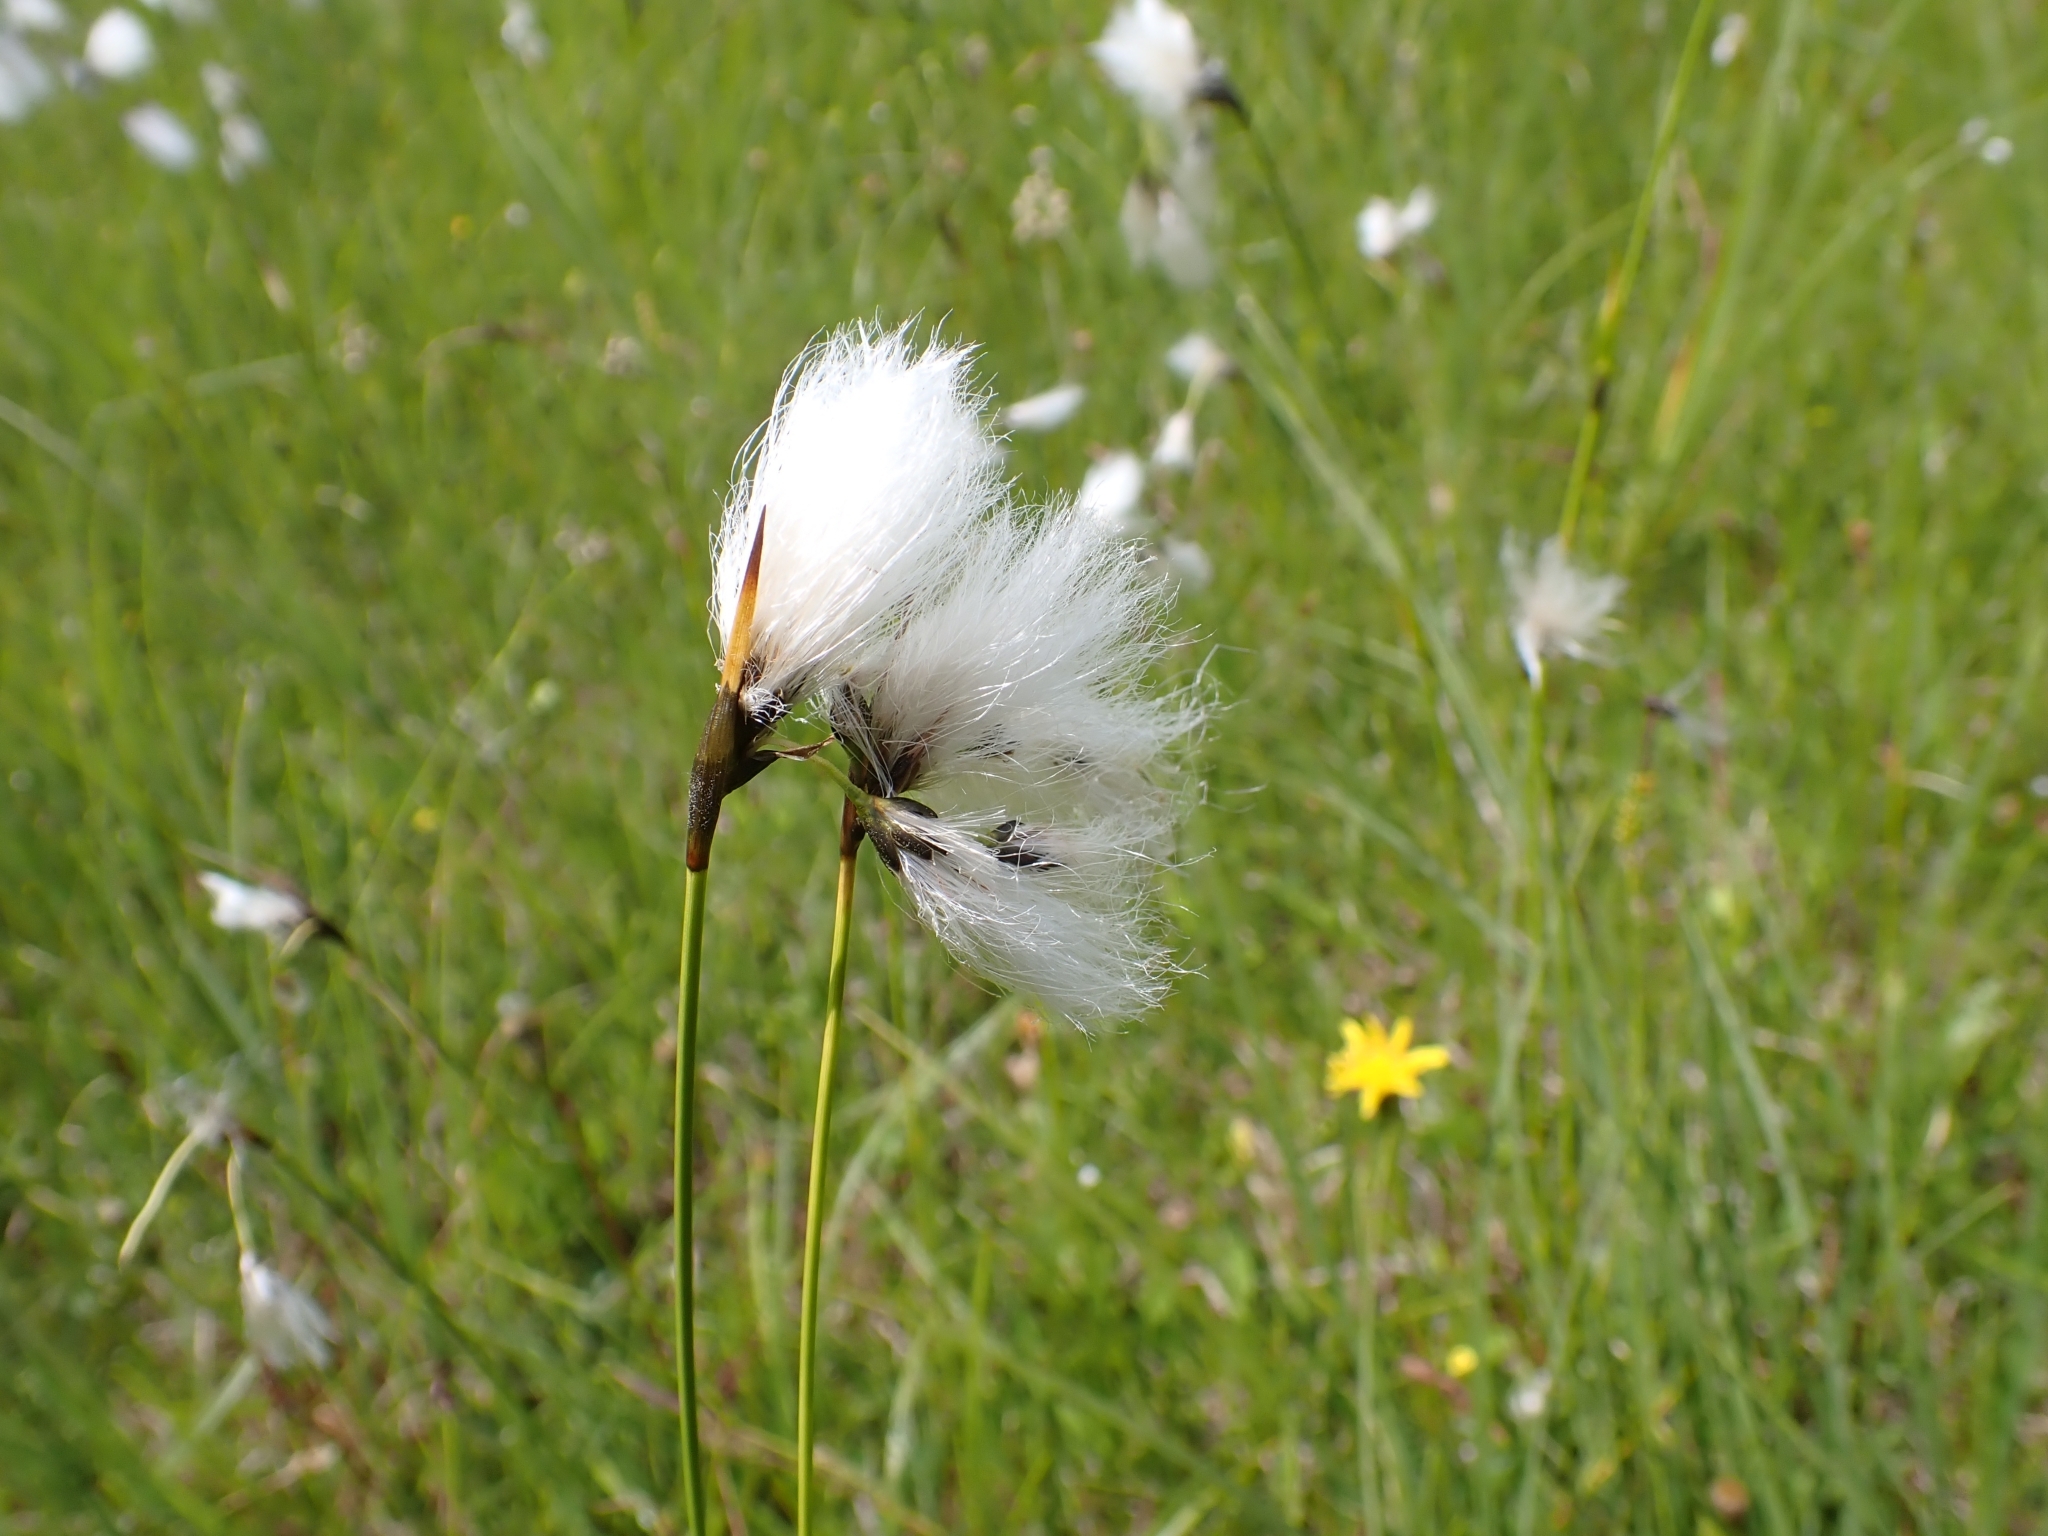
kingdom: Plantae
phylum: Tracheophyta
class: Liliopsida
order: Poales
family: Cyperaceae
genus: Eriophorum
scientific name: Eriophorum latifolium
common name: Broad-leaved cottongrass
